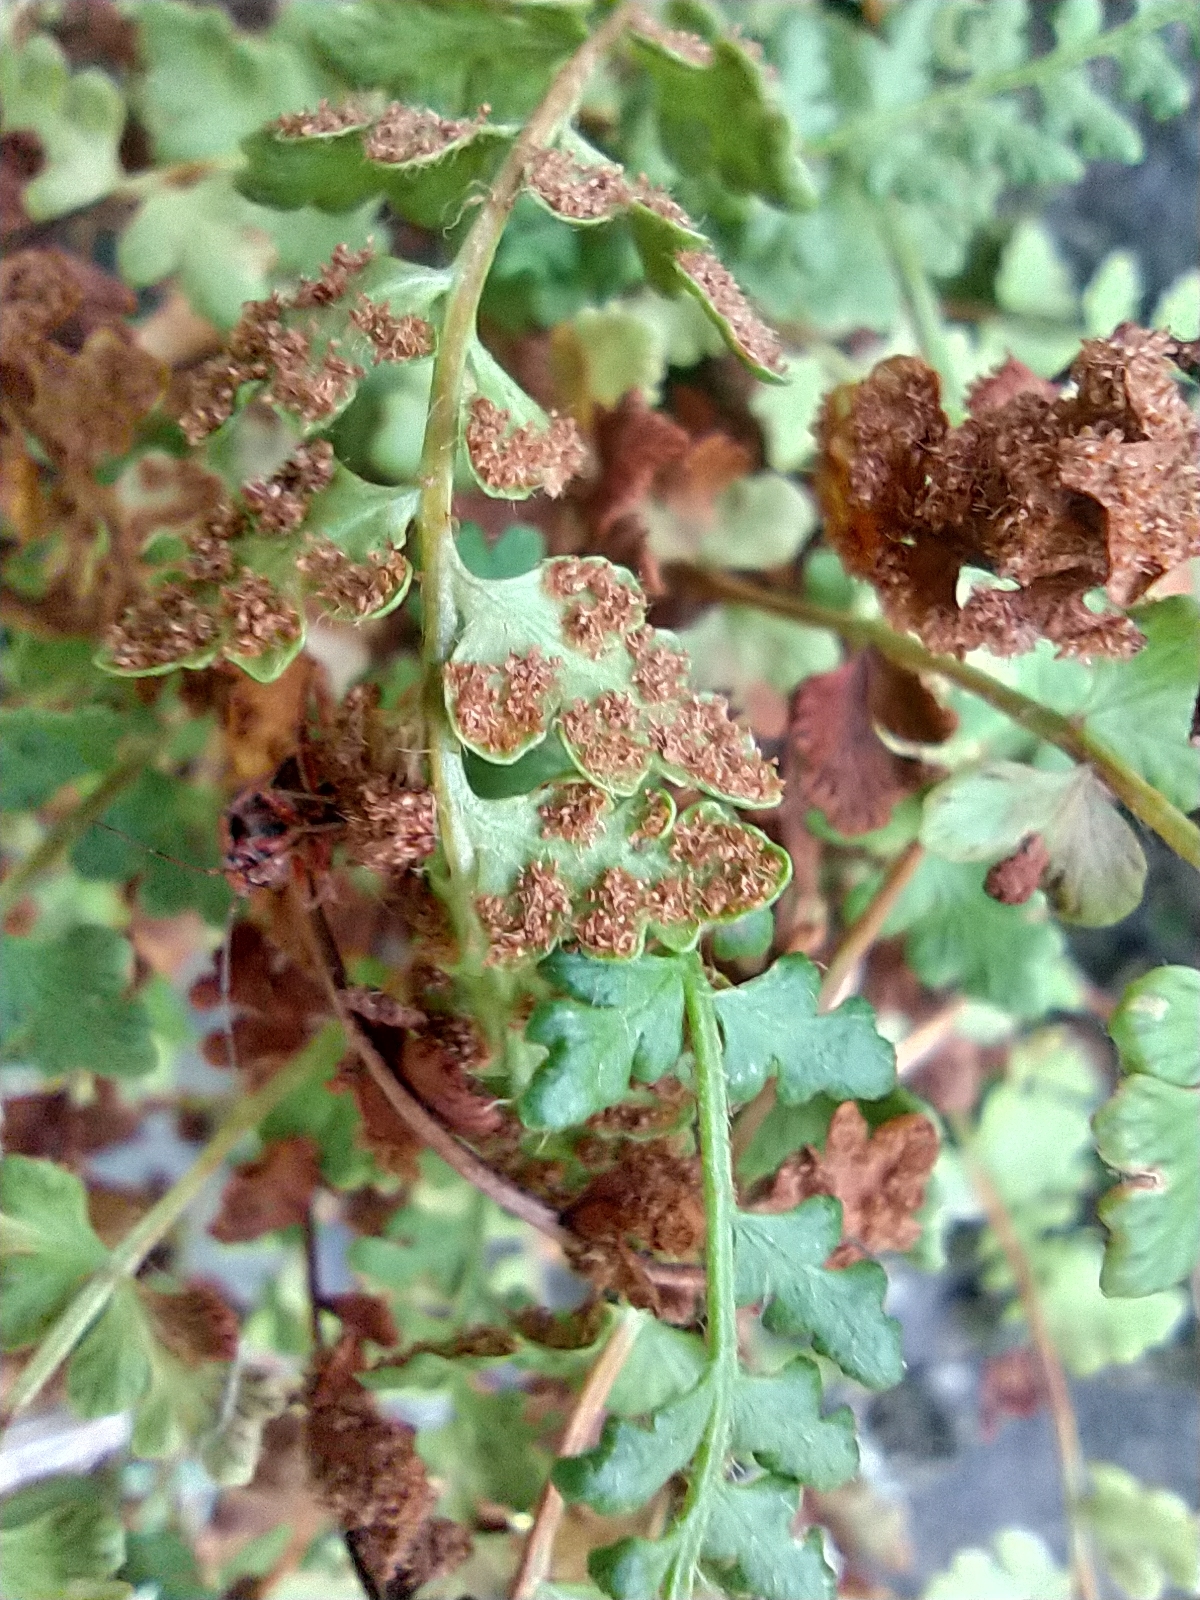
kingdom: Plantae
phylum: Tracheophyta
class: Polypodiopsida
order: Polypodiales
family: Woodsiaceae
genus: Woodsia
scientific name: Woodsia alpina
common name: Alpine woodsia
